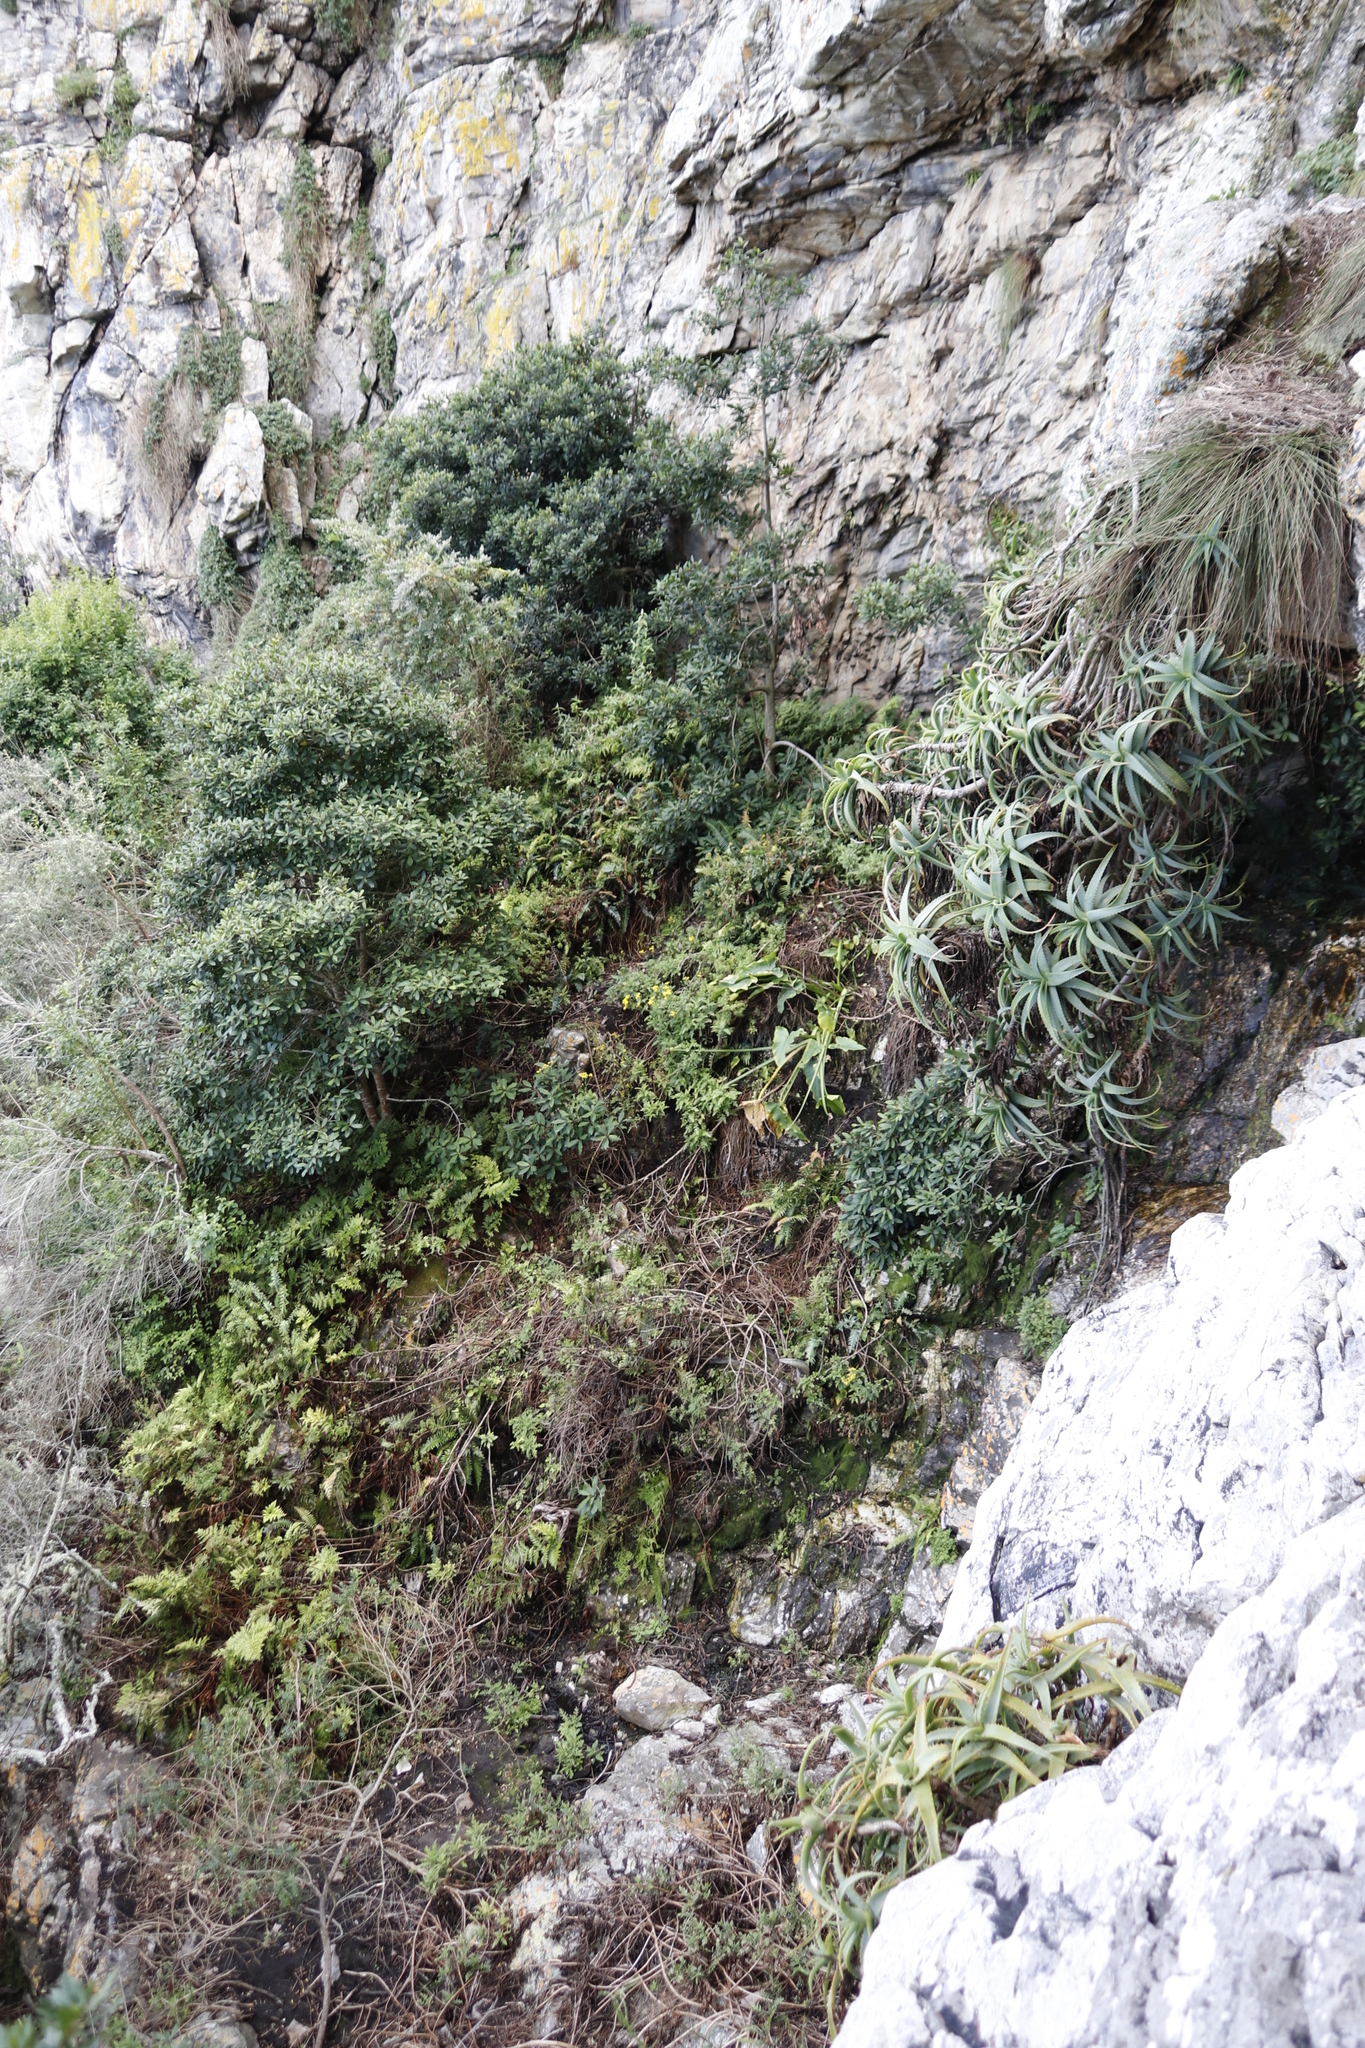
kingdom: Plantae
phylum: Tracheophyta
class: Liliopsida
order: Asparagales
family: Asphodelaceae
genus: Aloe
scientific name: Aloe arborescens
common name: Candelabra aloe
